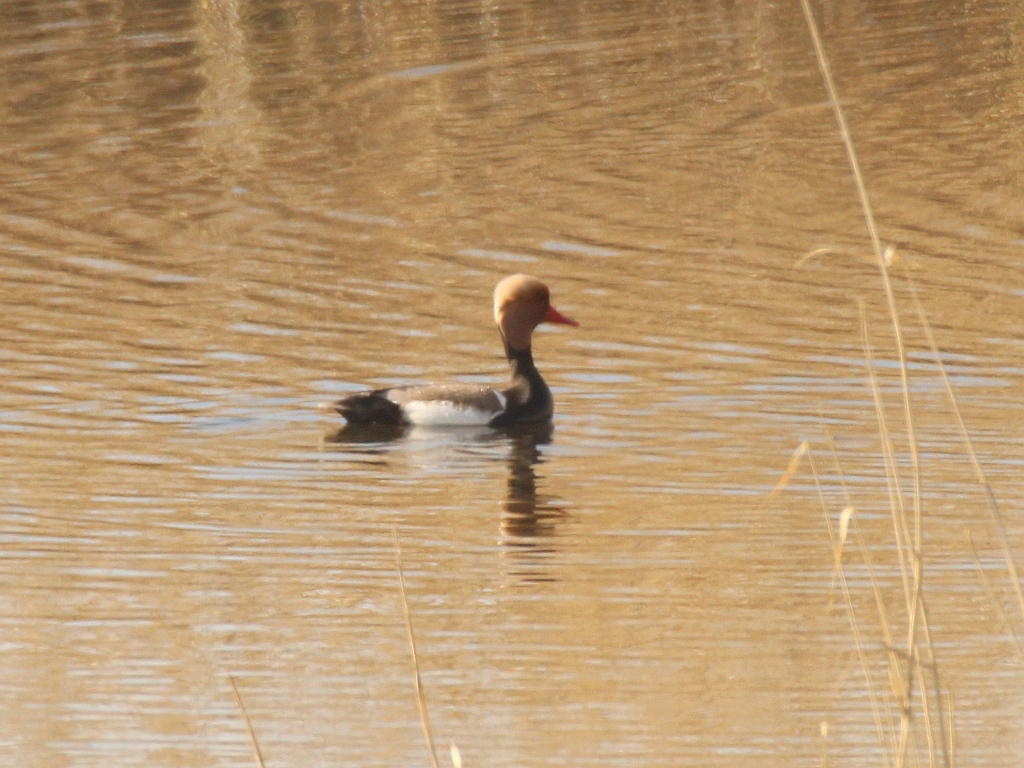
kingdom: Animalia
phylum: Chordata
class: Aves
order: Anseriformes
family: Anatidae
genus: Netta
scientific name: Netta rufina
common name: Red-crested pochard
